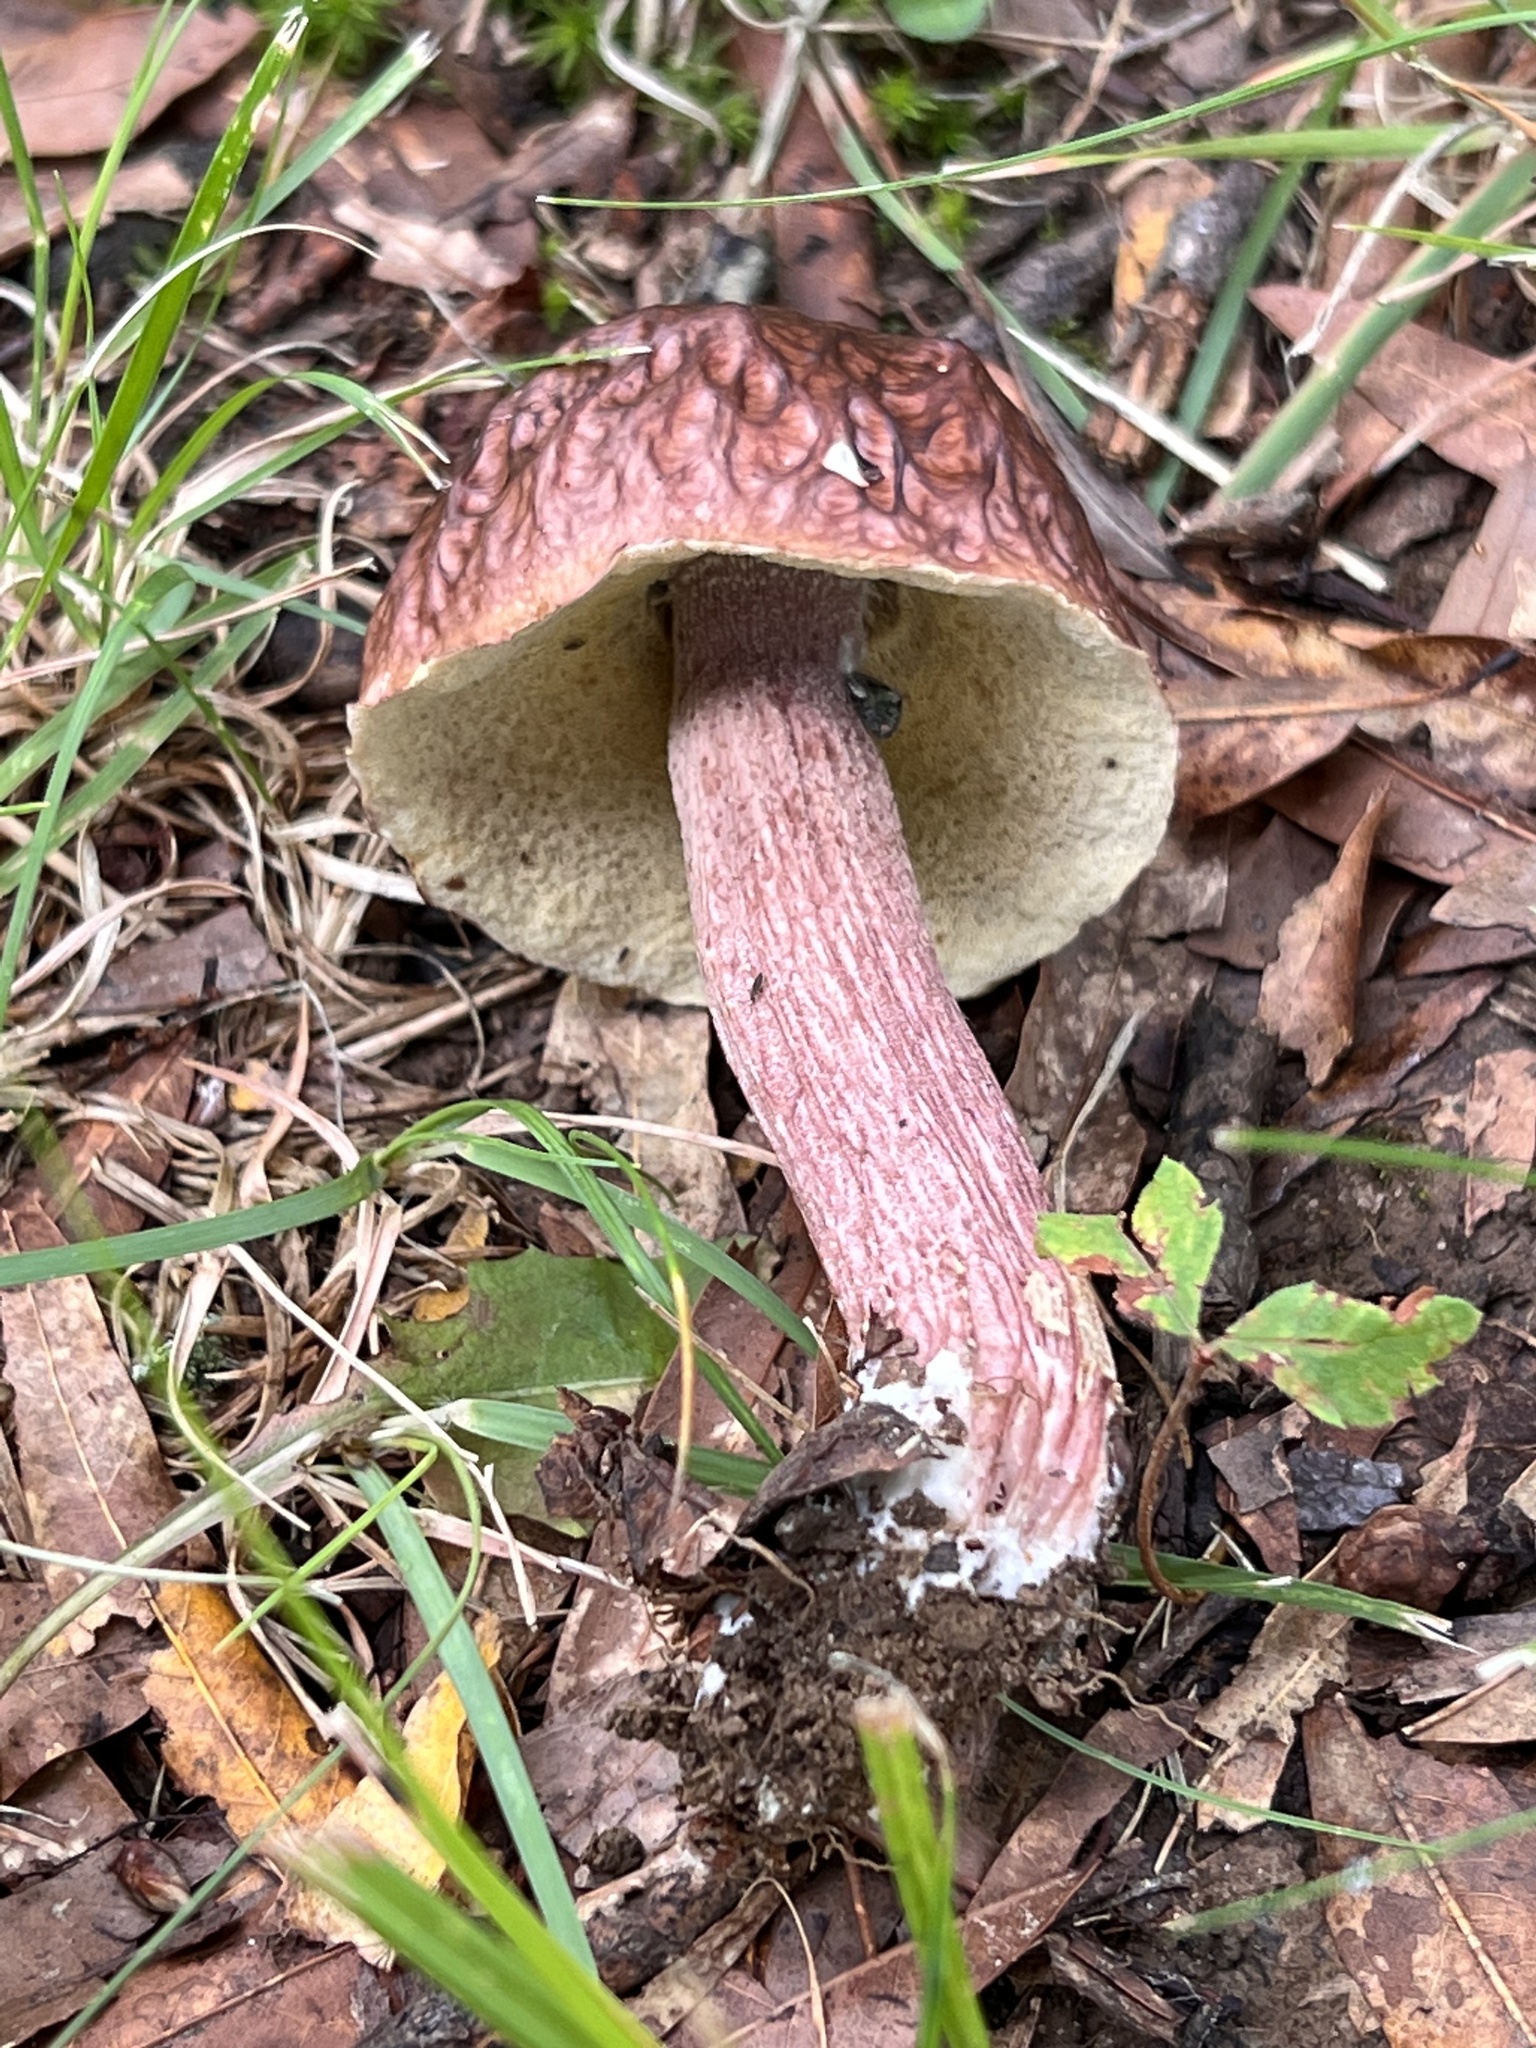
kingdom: Fungi
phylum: Basidiomycota
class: Agaricomycetes
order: Boletales
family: Boletaceae
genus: Xanthoconium
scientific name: Xanthoconium separans
